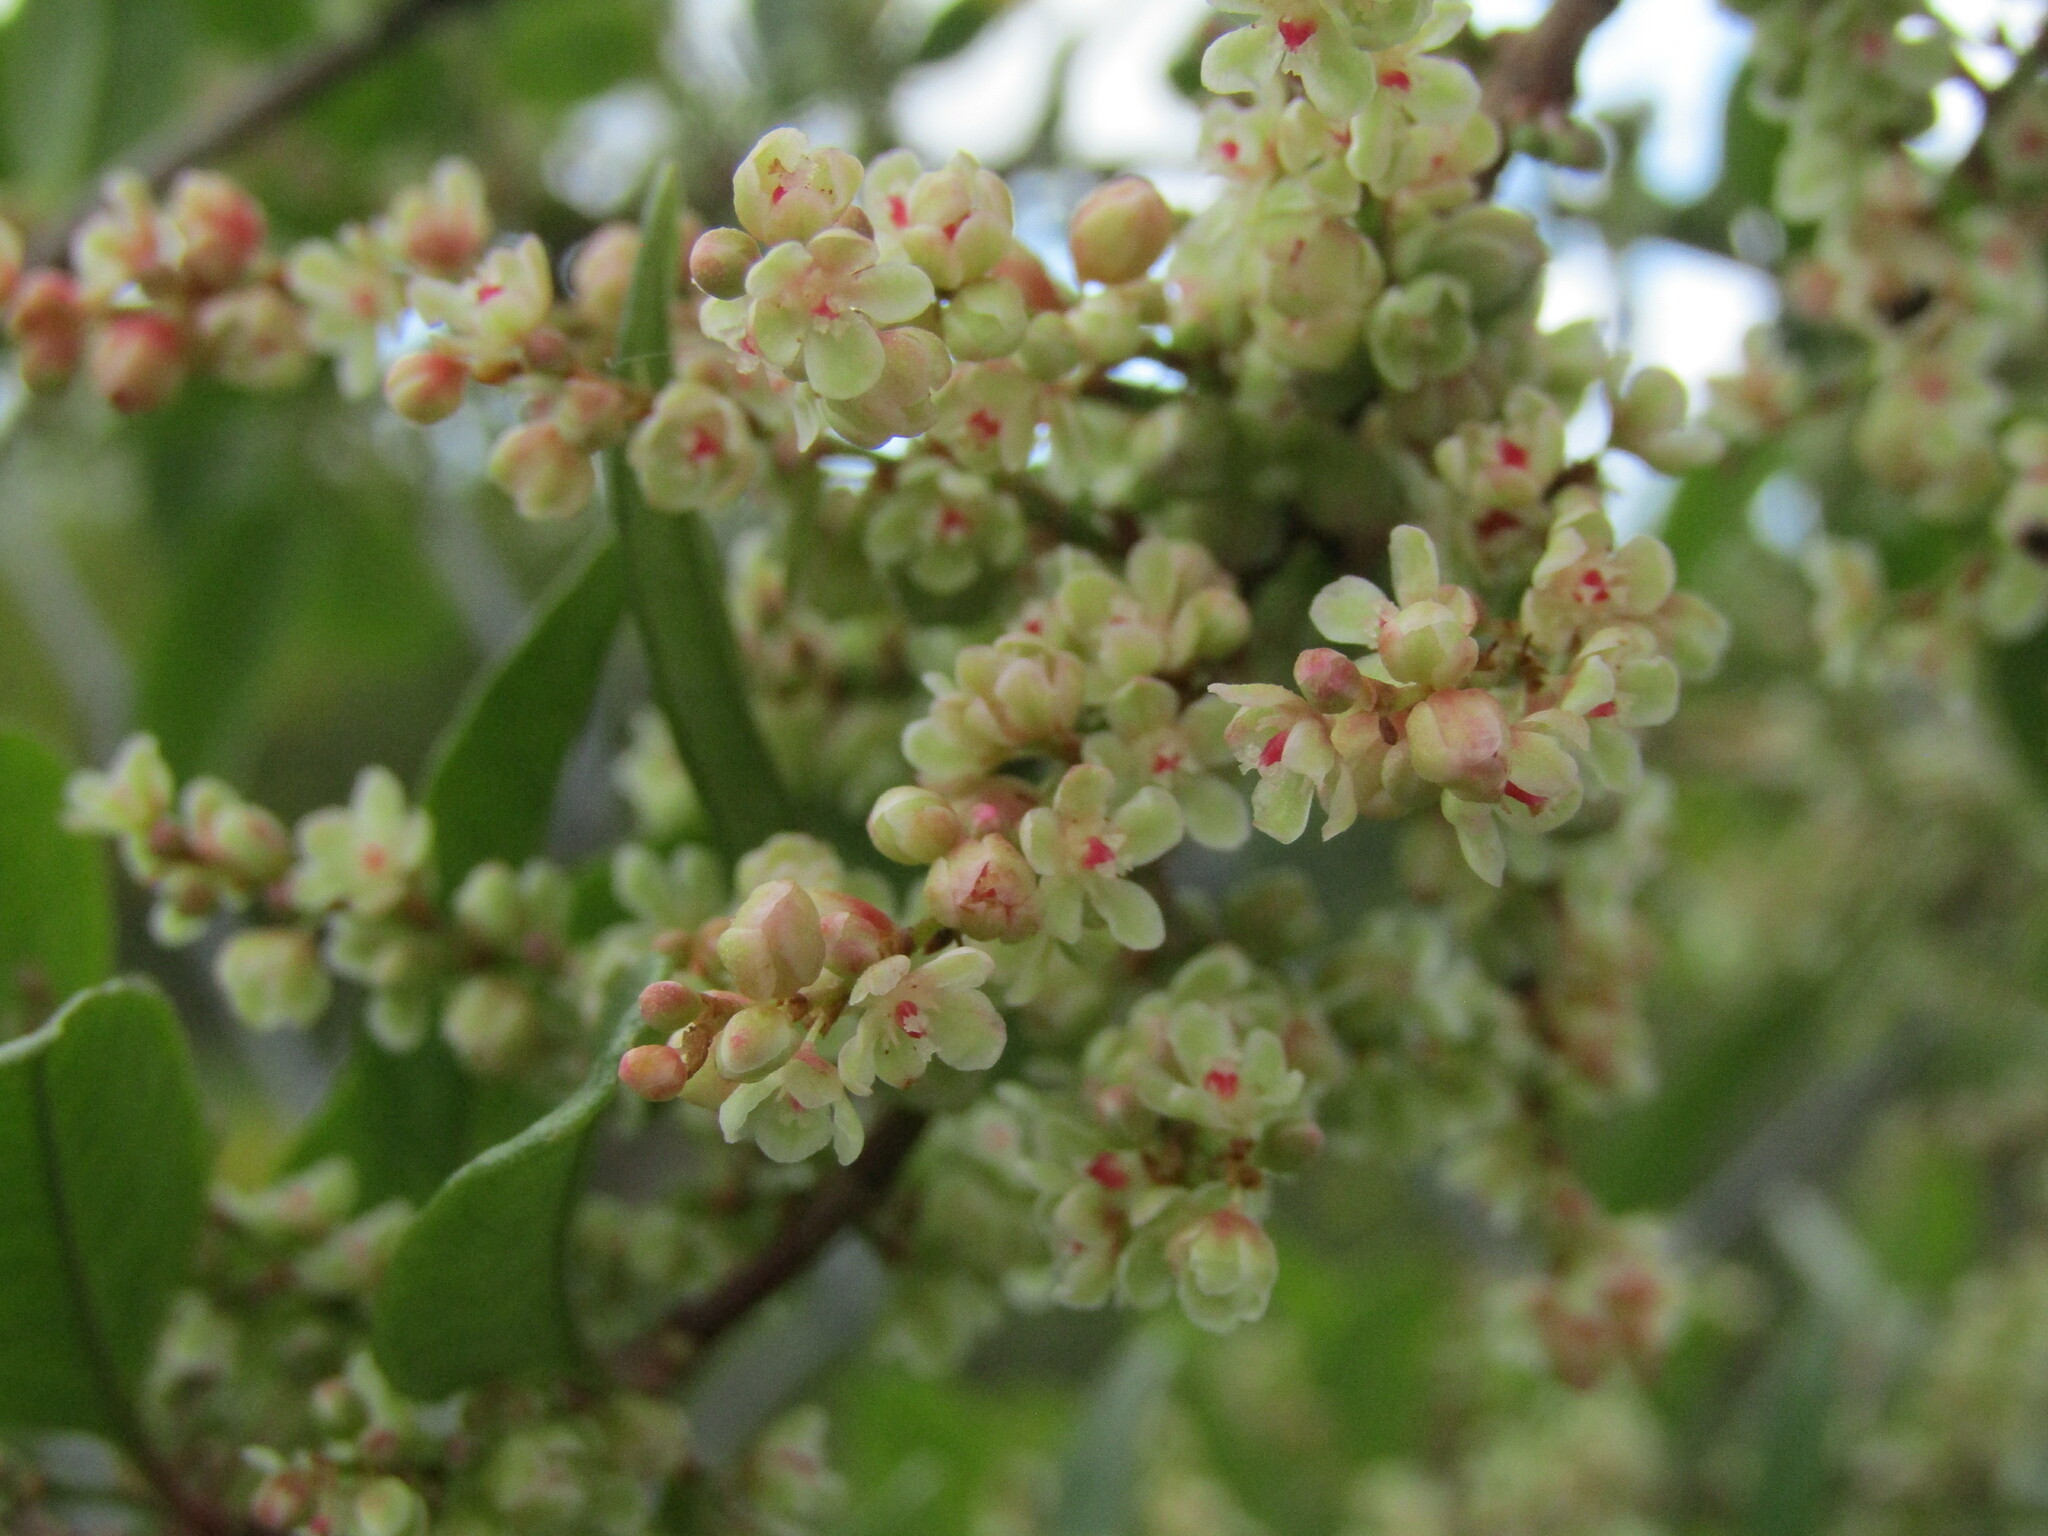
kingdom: Plantae
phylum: Tracheophyta
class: Magnoliopsida
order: Caryophyllales
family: Polygonaceae
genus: Muehlenbeckia
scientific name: Muehlenbeckia hastulata
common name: Wirevine
